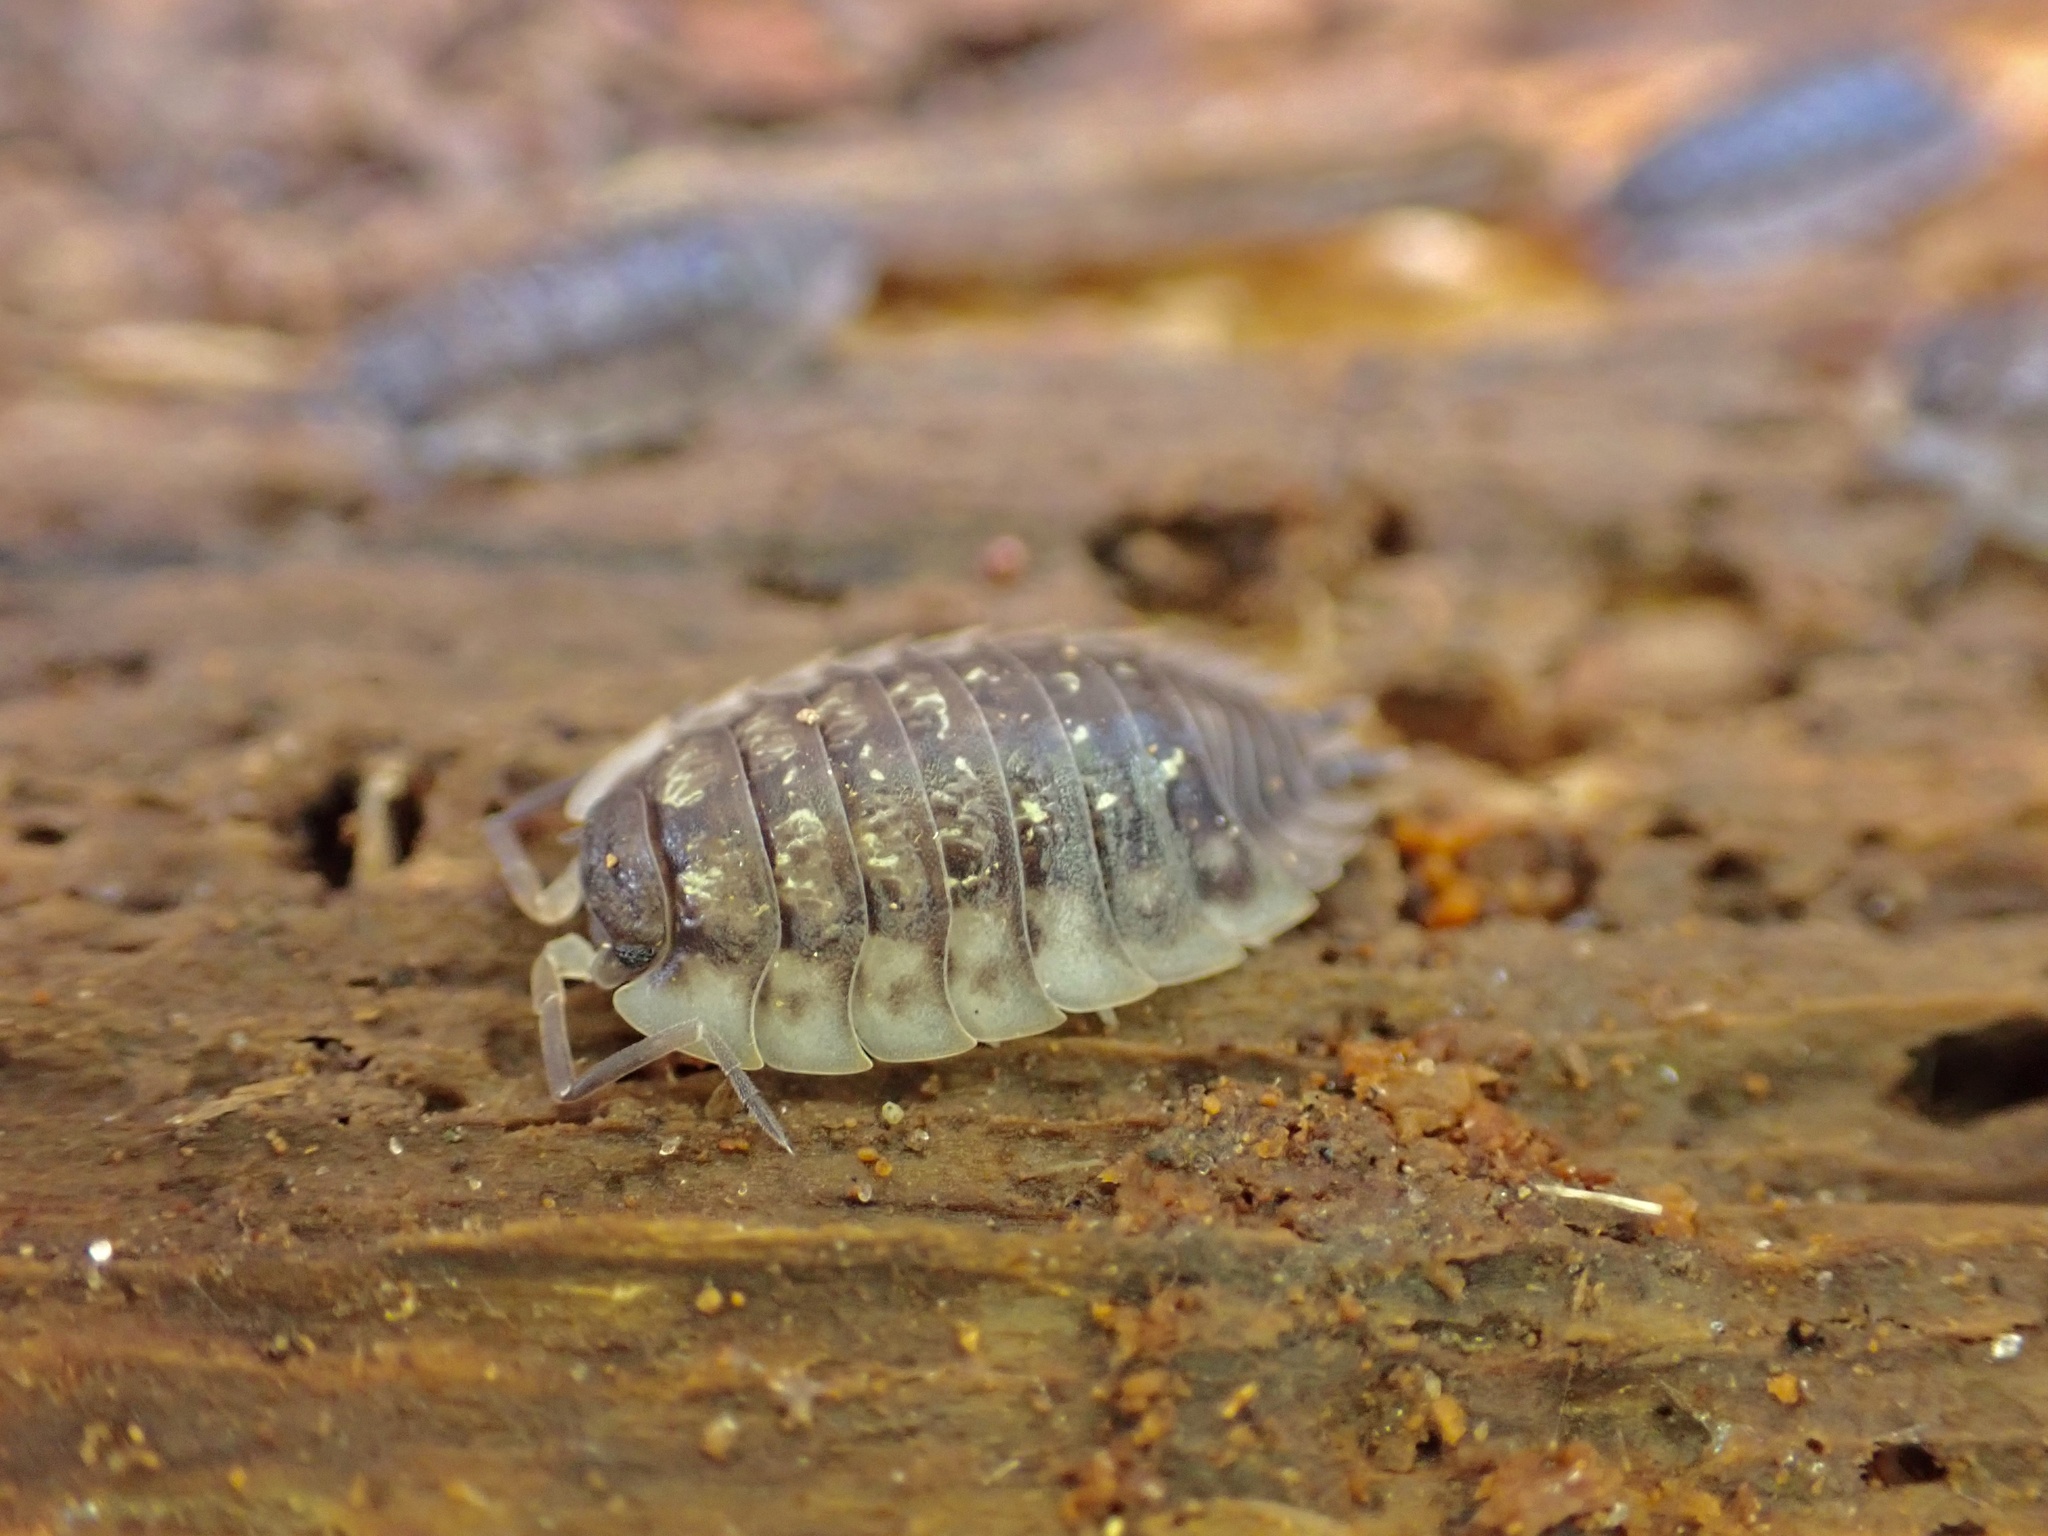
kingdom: Animalia
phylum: Arthropoda
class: Malacostraca
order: Isopoda
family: Oniscidae
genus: Oniscus
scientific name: Oniscus asellus
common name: Common shiny woodlouse
